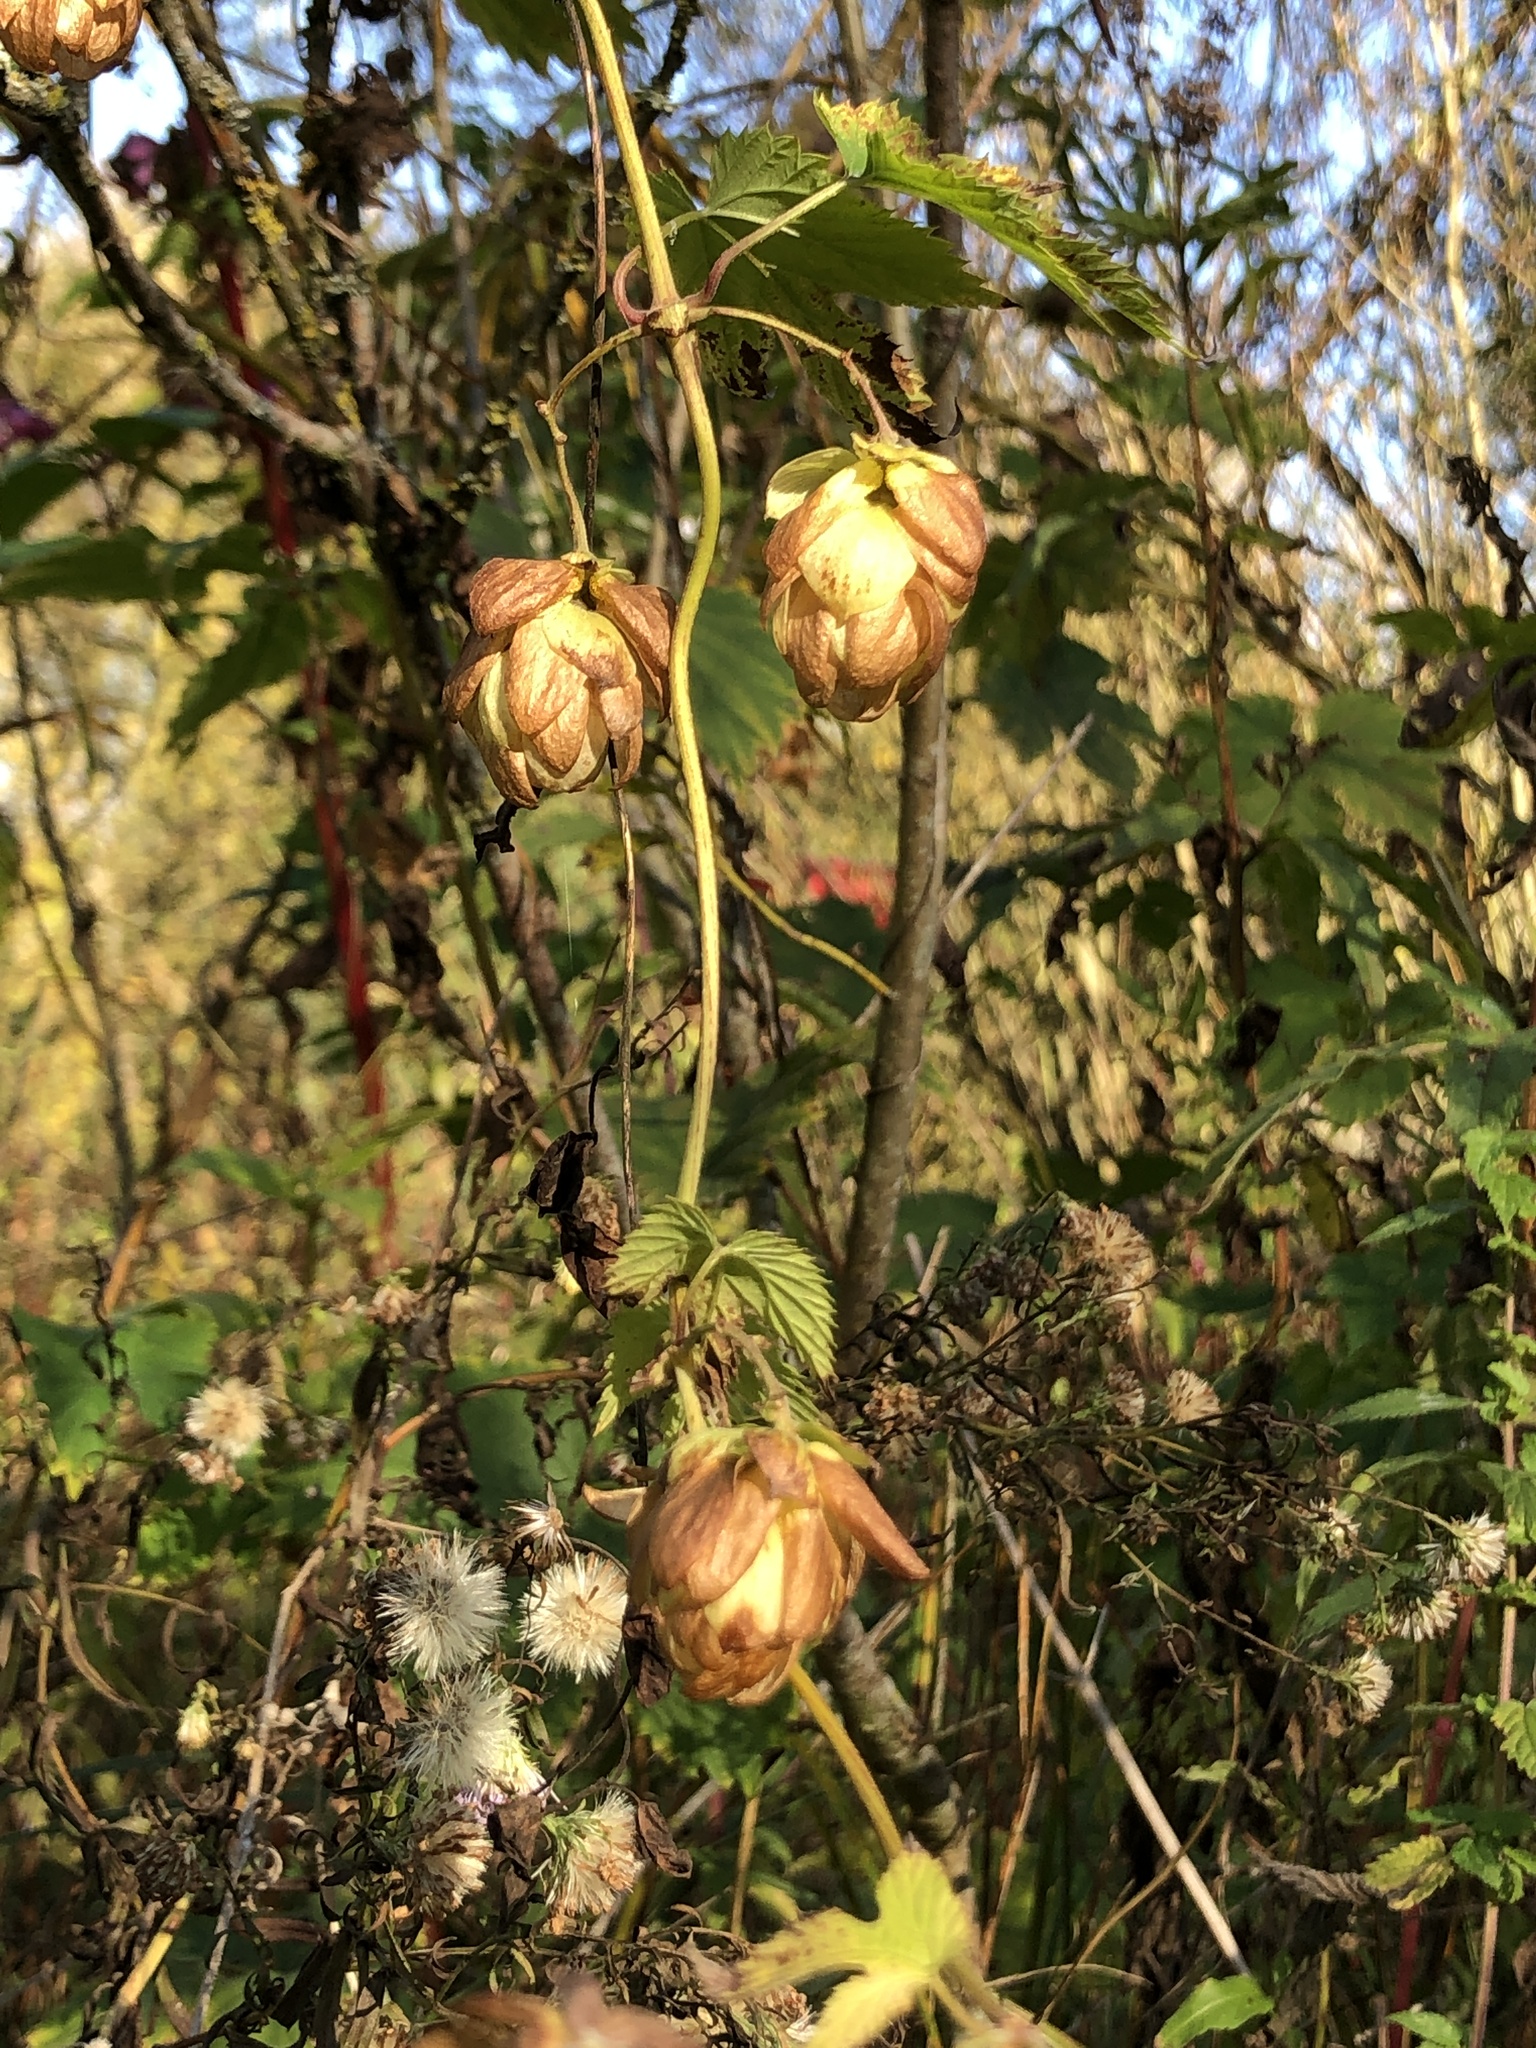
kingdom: Plantae
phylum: Tracheophyta
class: Magnoliopsida
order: Rosales
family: Cannabaceae
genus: Humulus
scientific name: Humulus lupulus
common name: Hop
